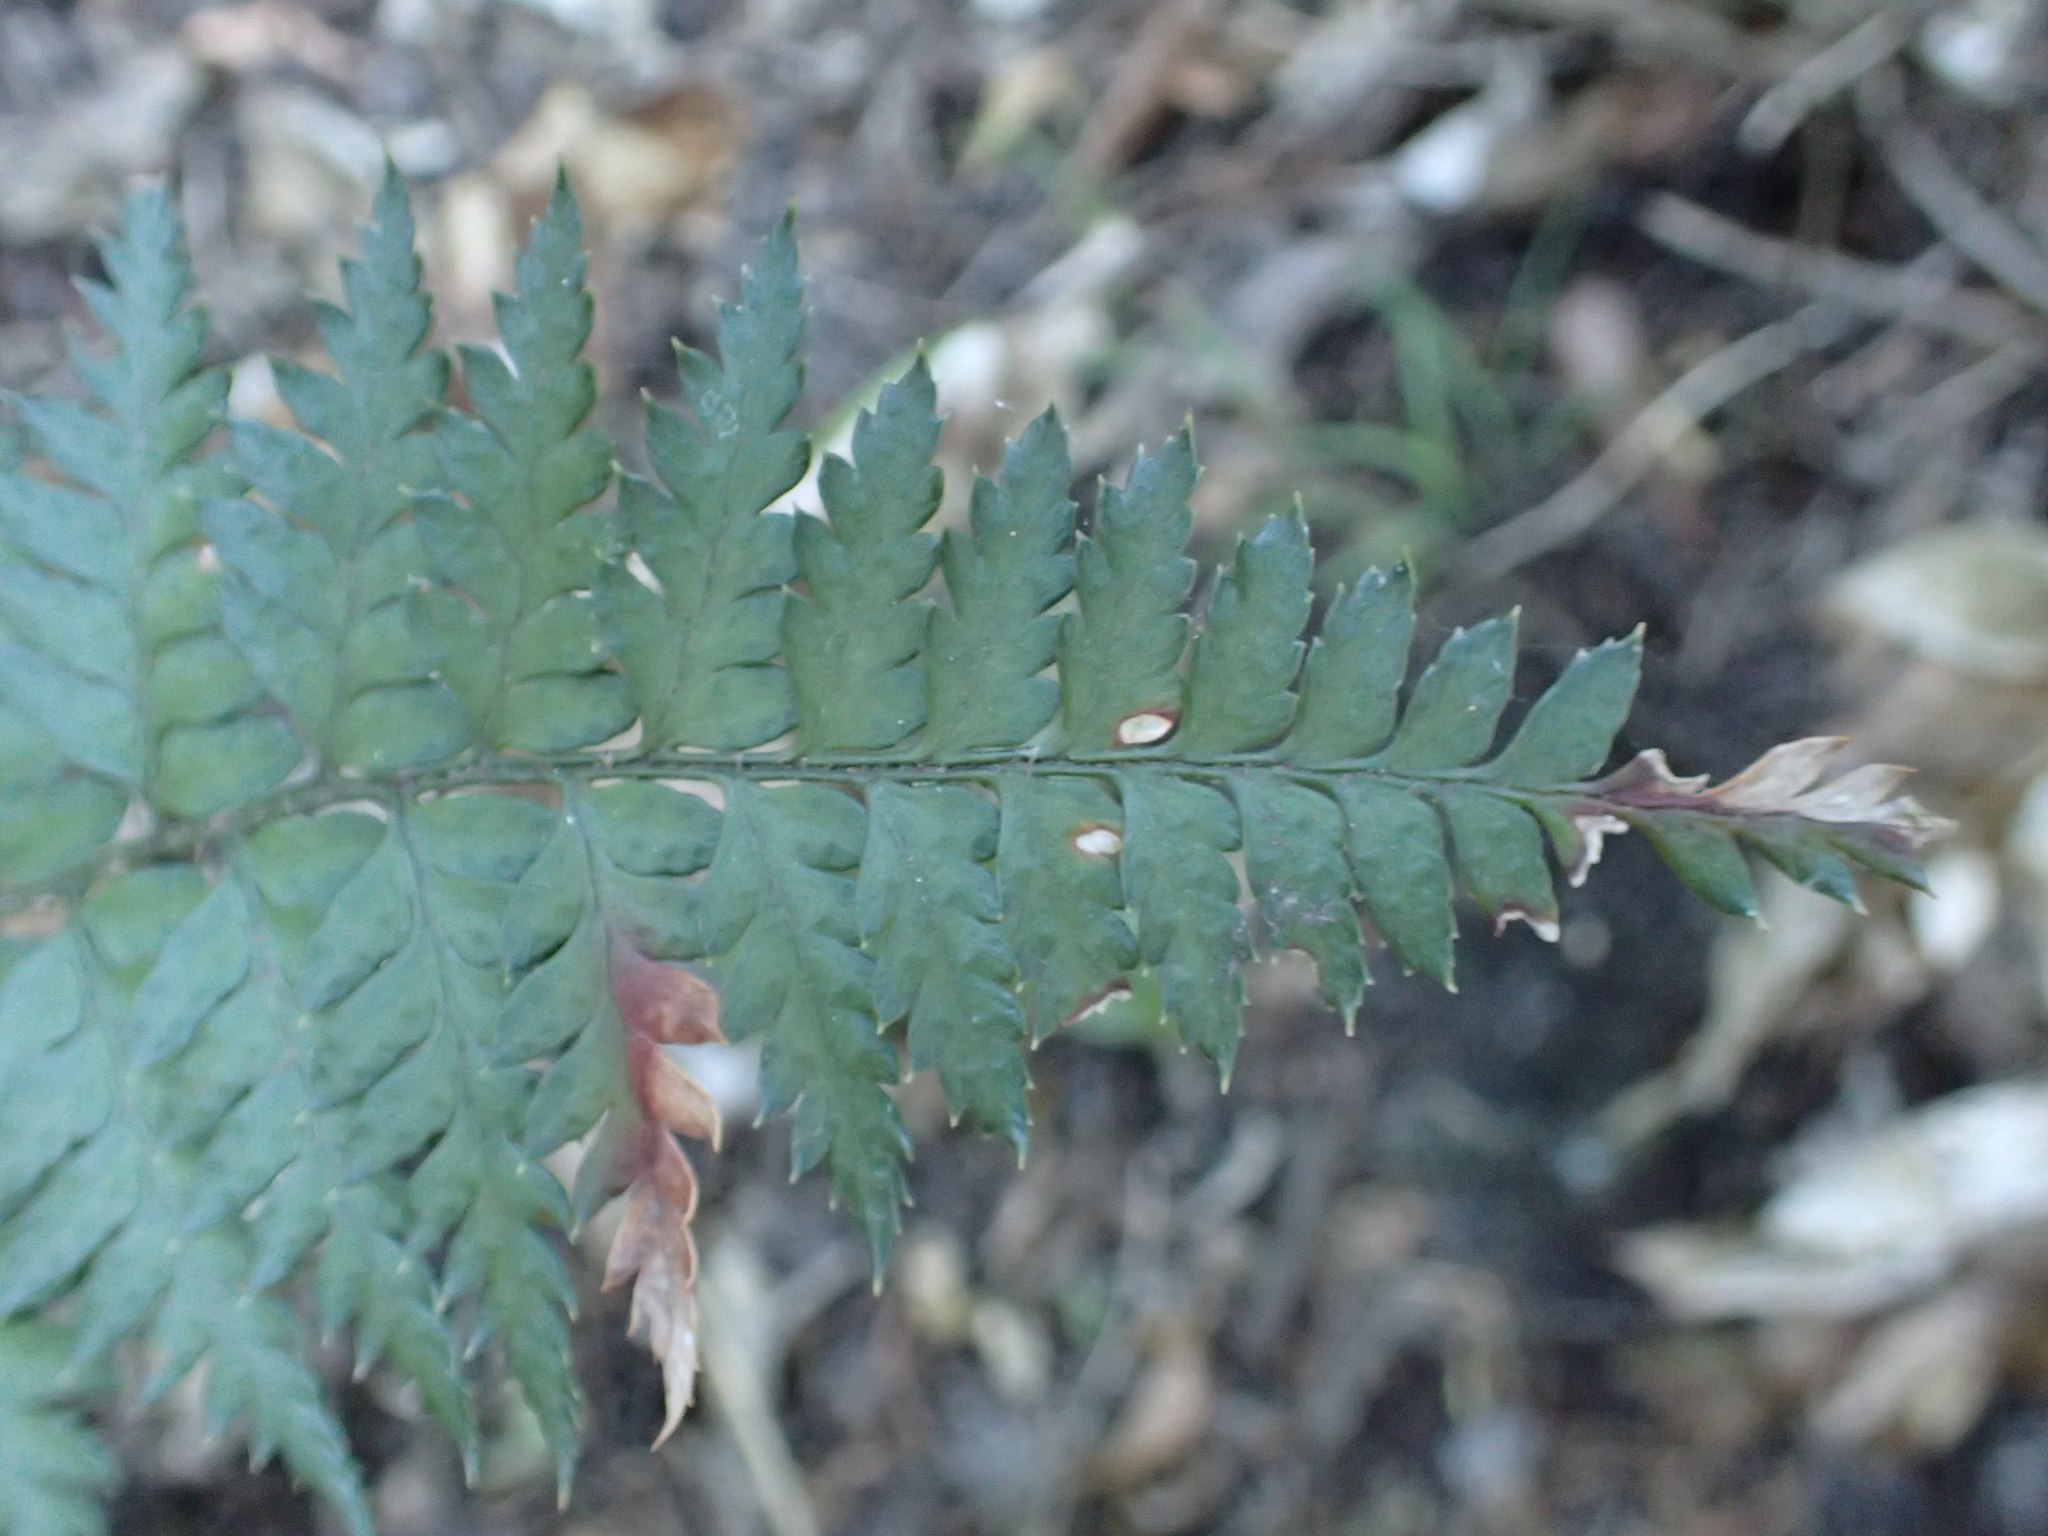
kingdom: Plantae
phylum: Tracheophyta
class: Polypodiopsida
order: Polypodiales
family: Dryopteridaceae
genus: Polystichum
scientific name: Polystichum oculatum
